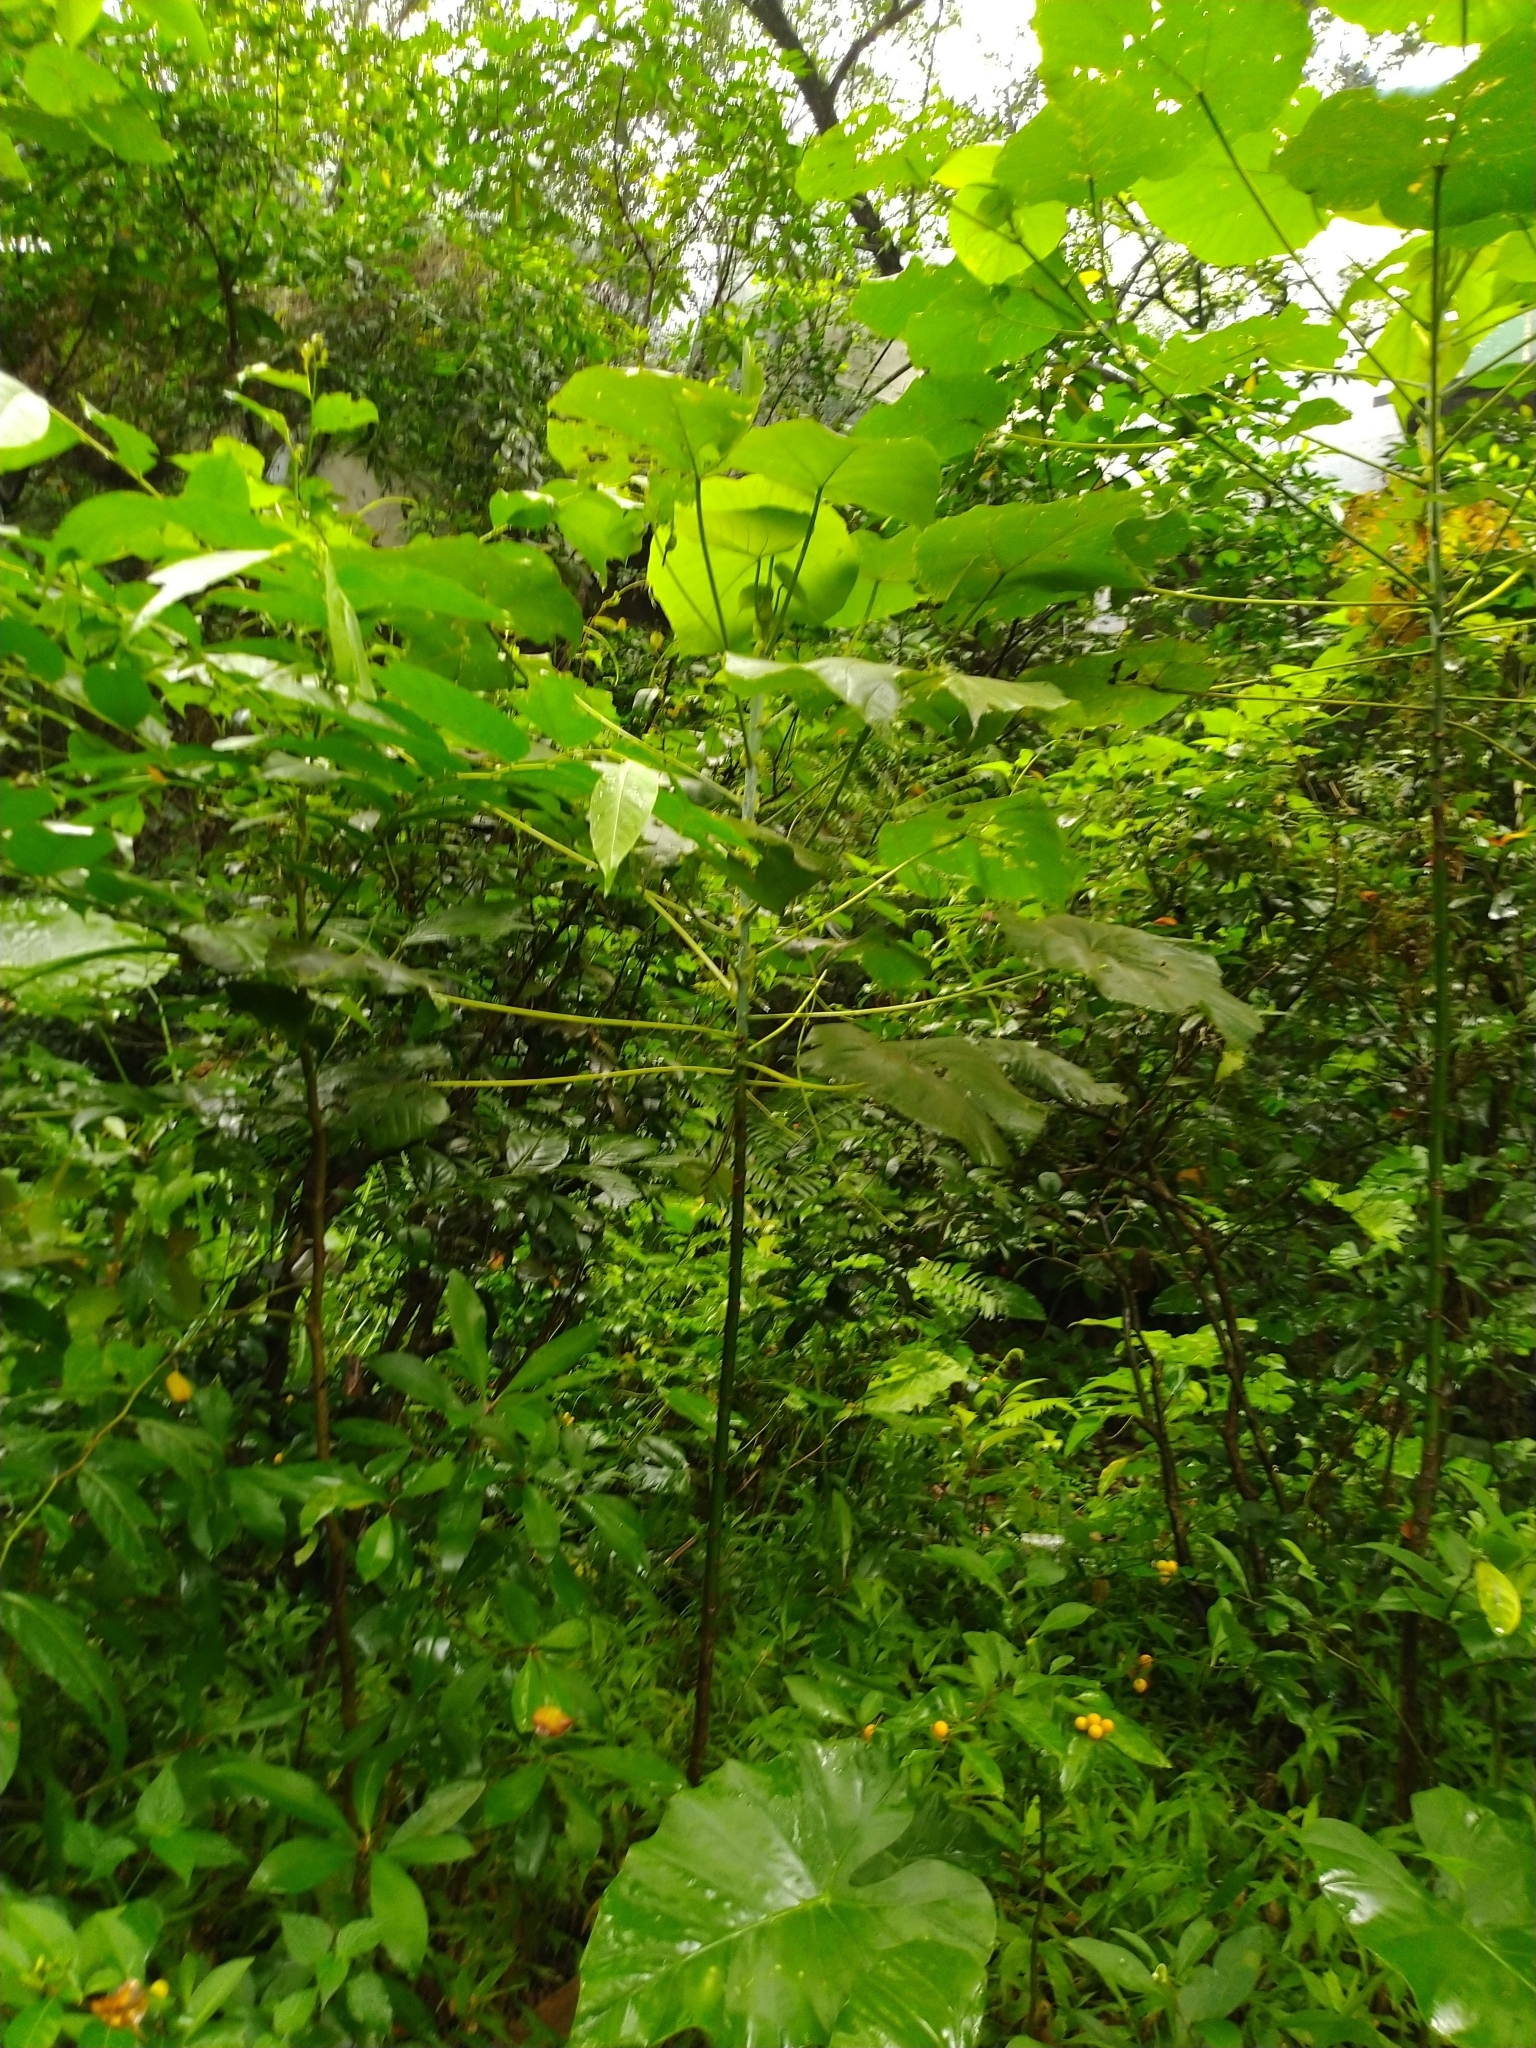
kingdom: Plantae
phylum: Tracheophyta
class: Magnoliopsida
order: Malpighiales
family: Euphorbiaceae
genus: Macaranga
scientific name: Macaranga tanarius
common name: Parasol leaf tree
